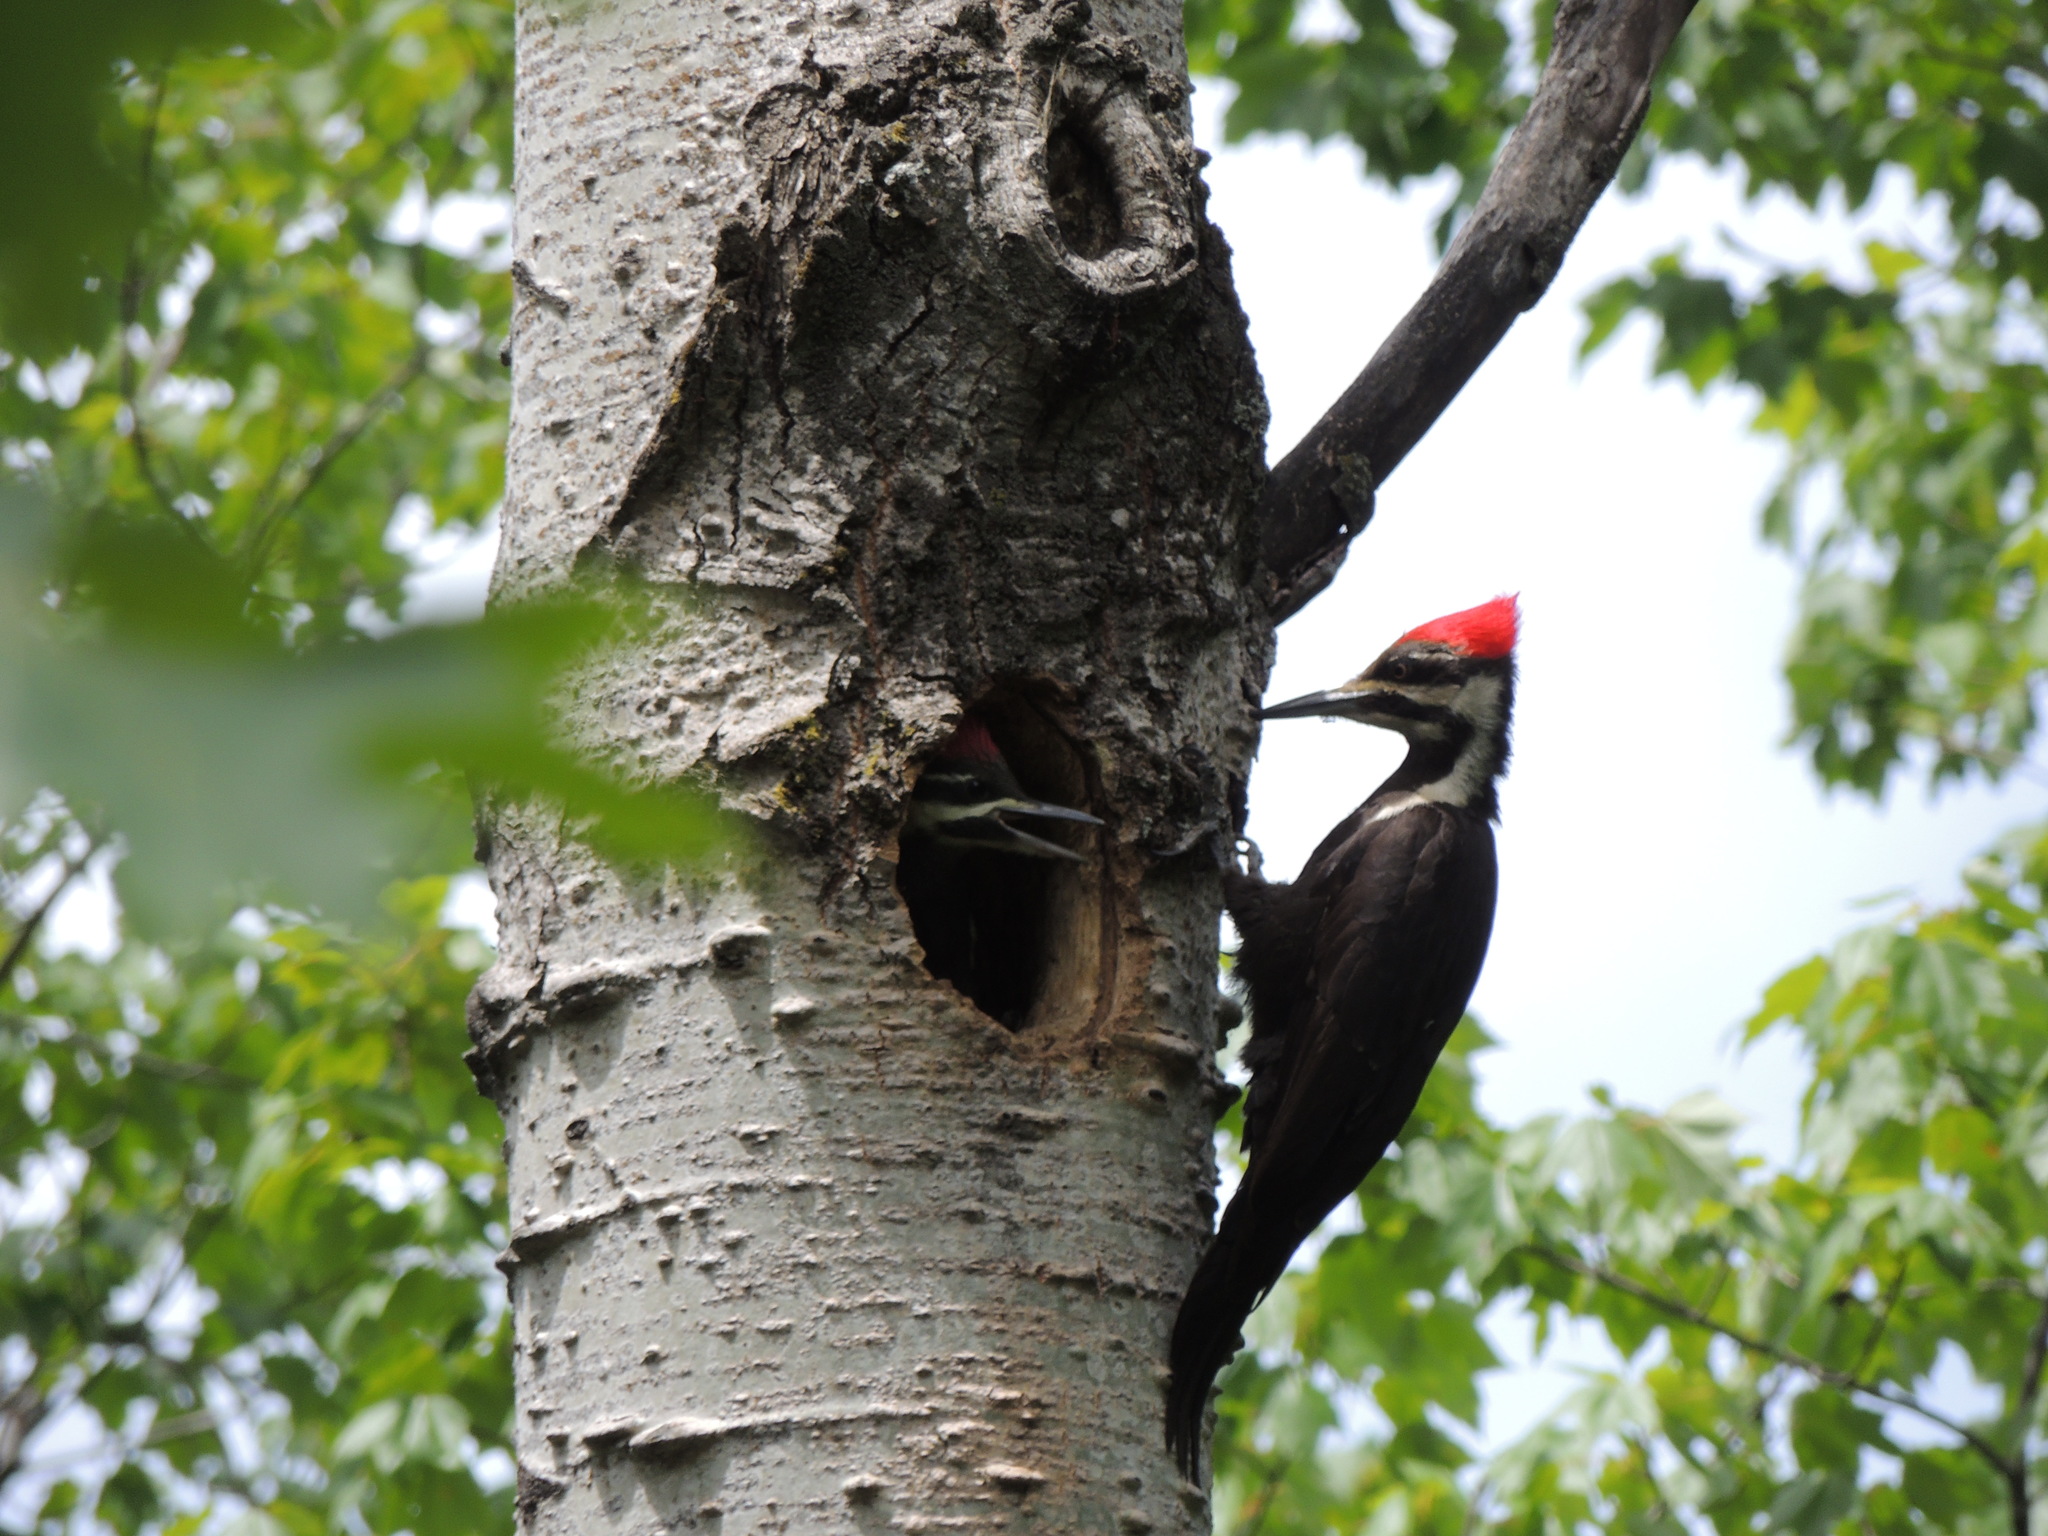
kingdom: Animalia
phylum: Chordata
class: Aves
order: Piciformes
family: Picidae
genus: Dryocopus
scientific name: Dryocopus pileatus
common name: Pileated woodpecker
